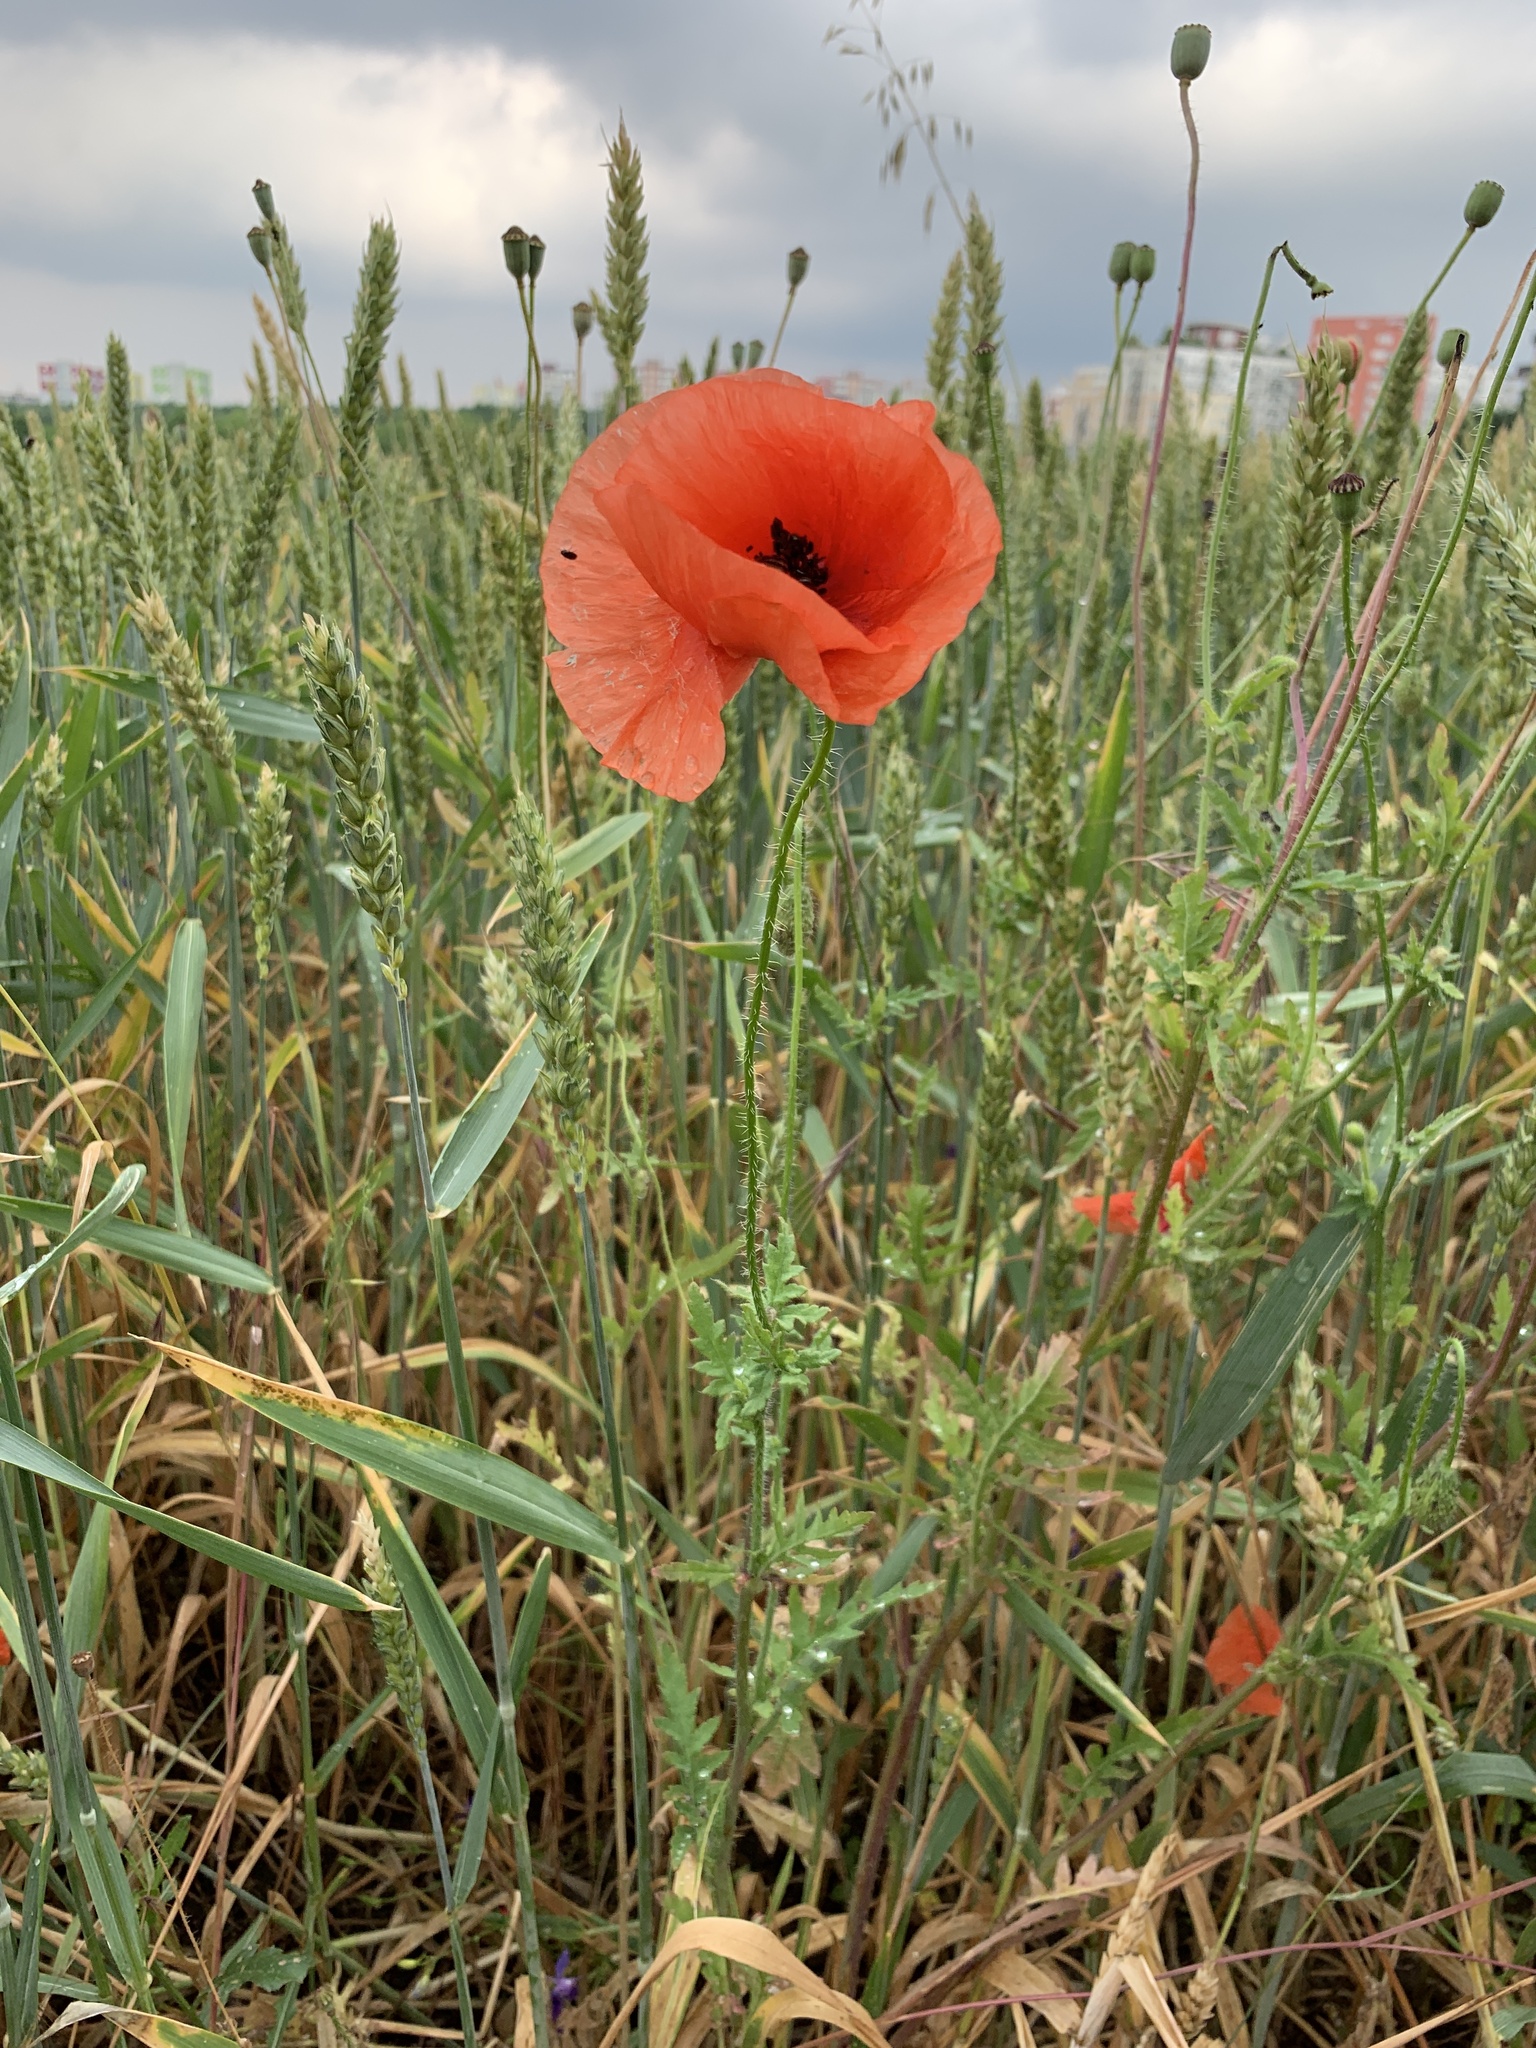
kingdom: Plantae
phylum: Tracheophyta
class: Magnoliopsida
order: Ranunculales
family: Papaveraceae
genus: Papaver
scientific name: Papaver rhoeas
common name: Corn poppy
